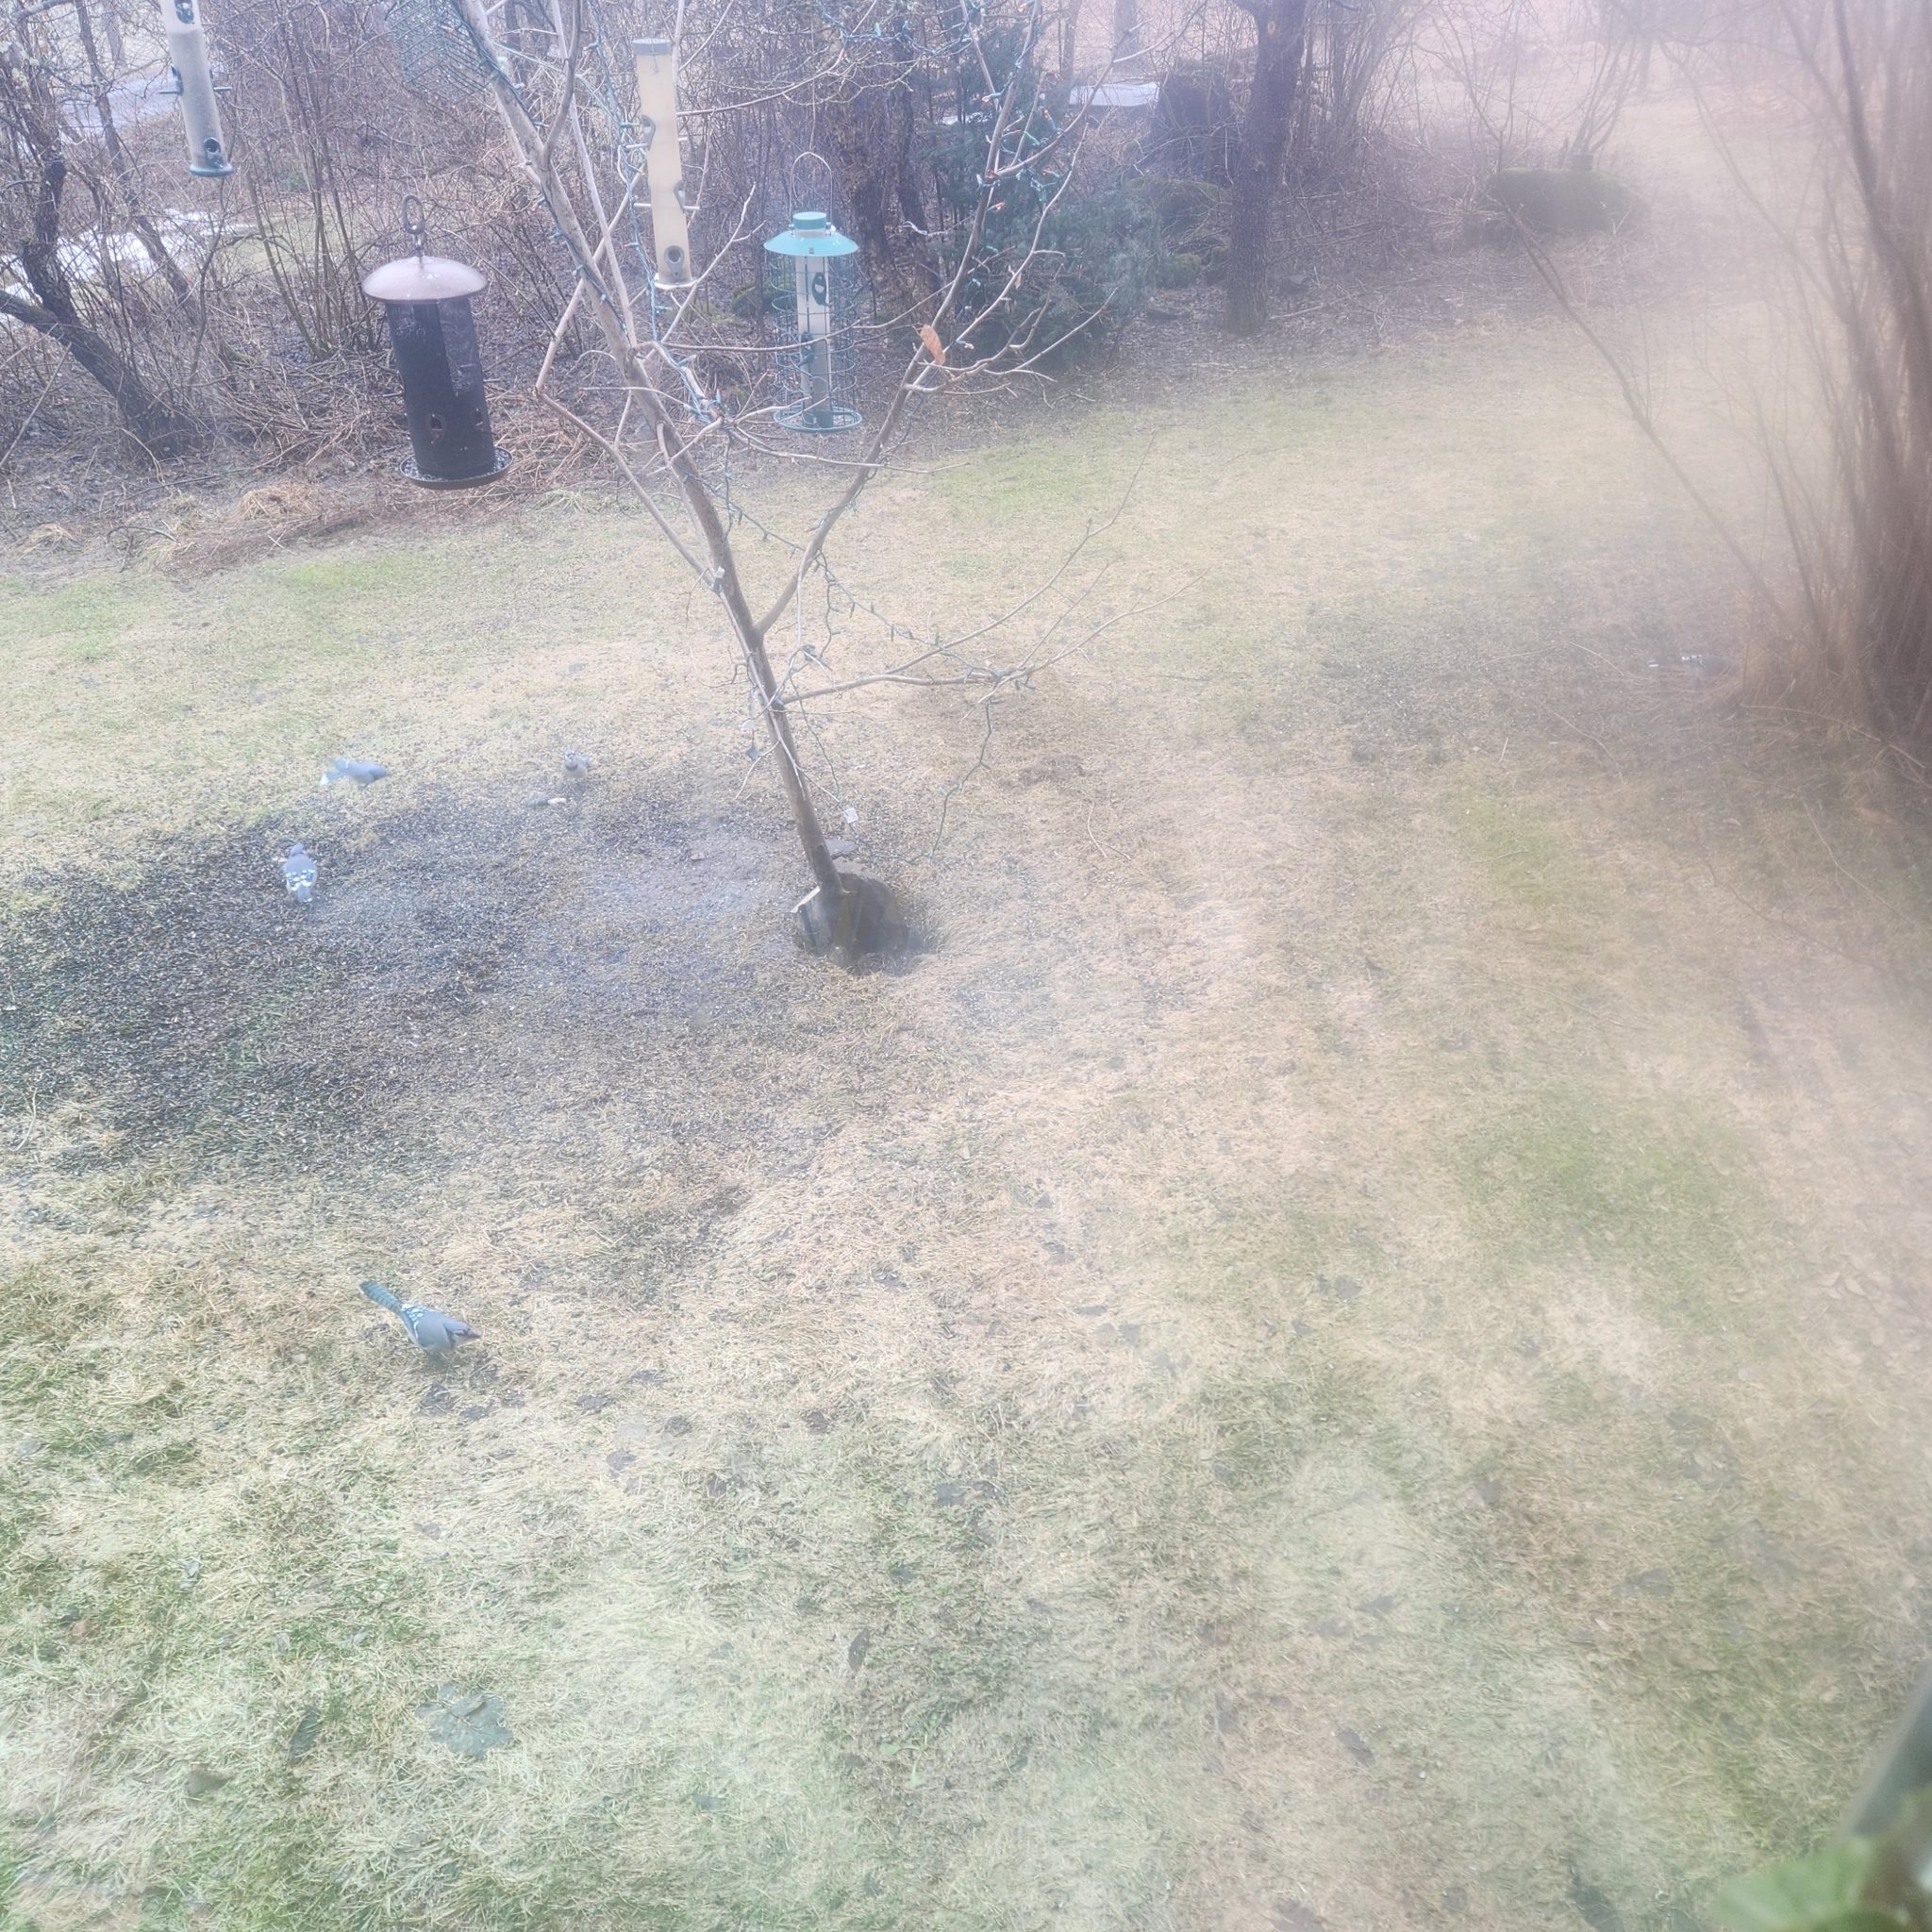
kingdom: Animalia
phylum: Chordata
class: Aves
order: Passeriformes
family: Corvidae
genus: Cyanocitta
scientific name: Cyanocitta cristata
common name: Blue jay
